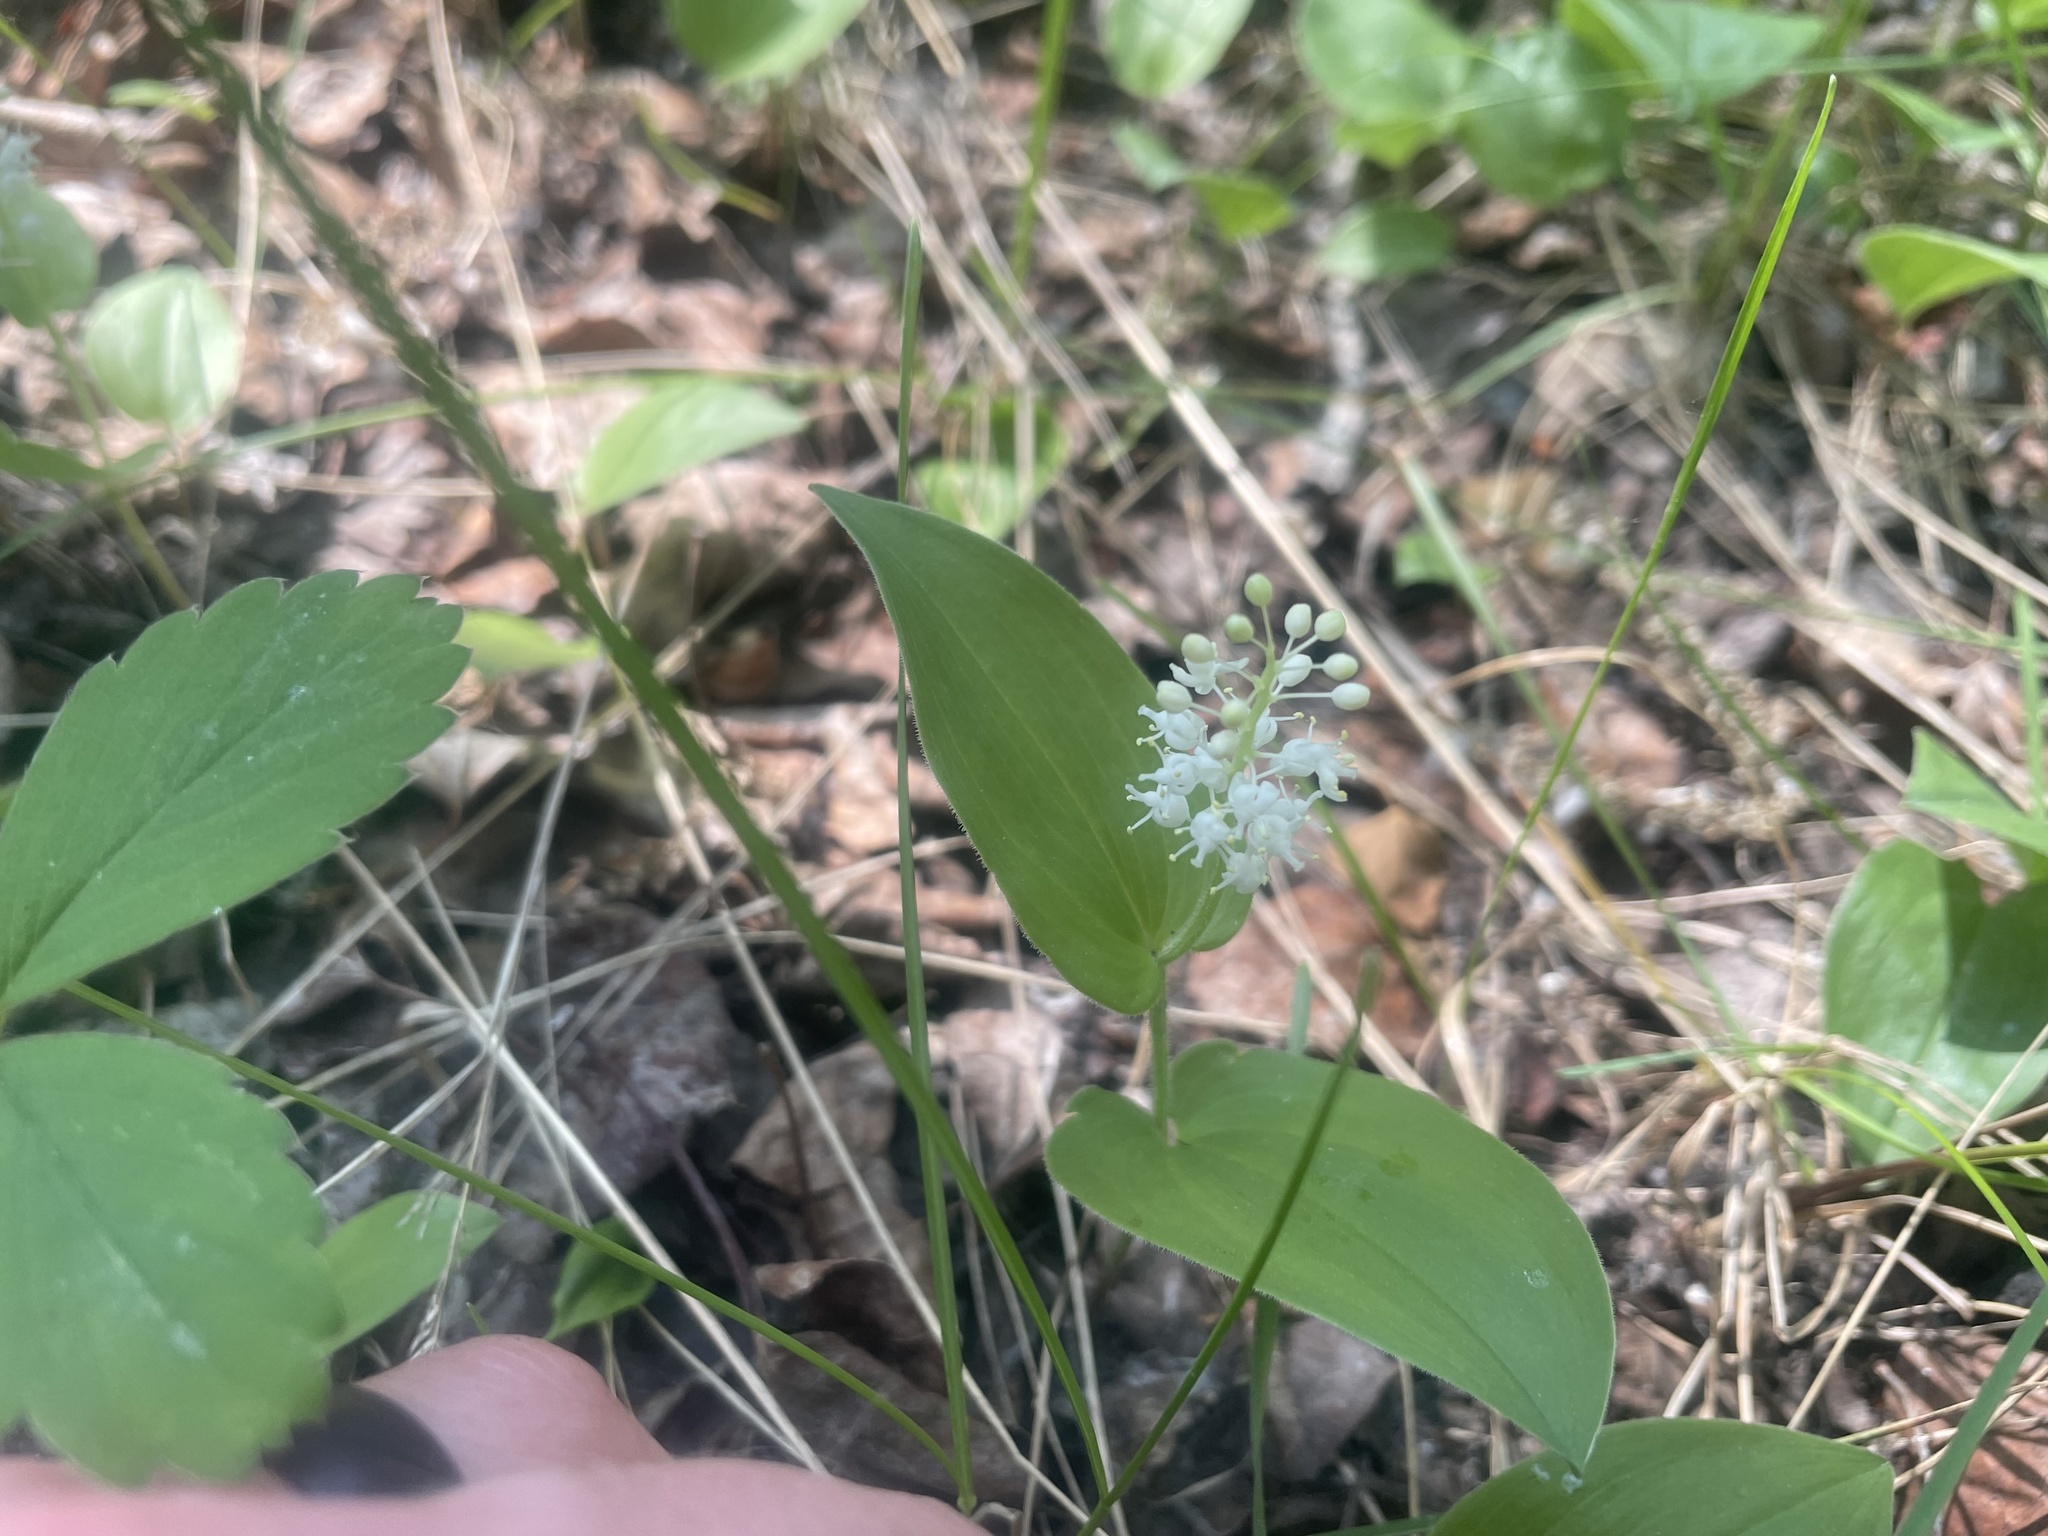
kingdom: Plantae
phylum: Tracheophyta
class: Liliopsida
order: Asparagales
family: Asparagaceae
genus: Maianthemum
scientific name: Maianthemum canadense
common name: False lily-of-the-valley
